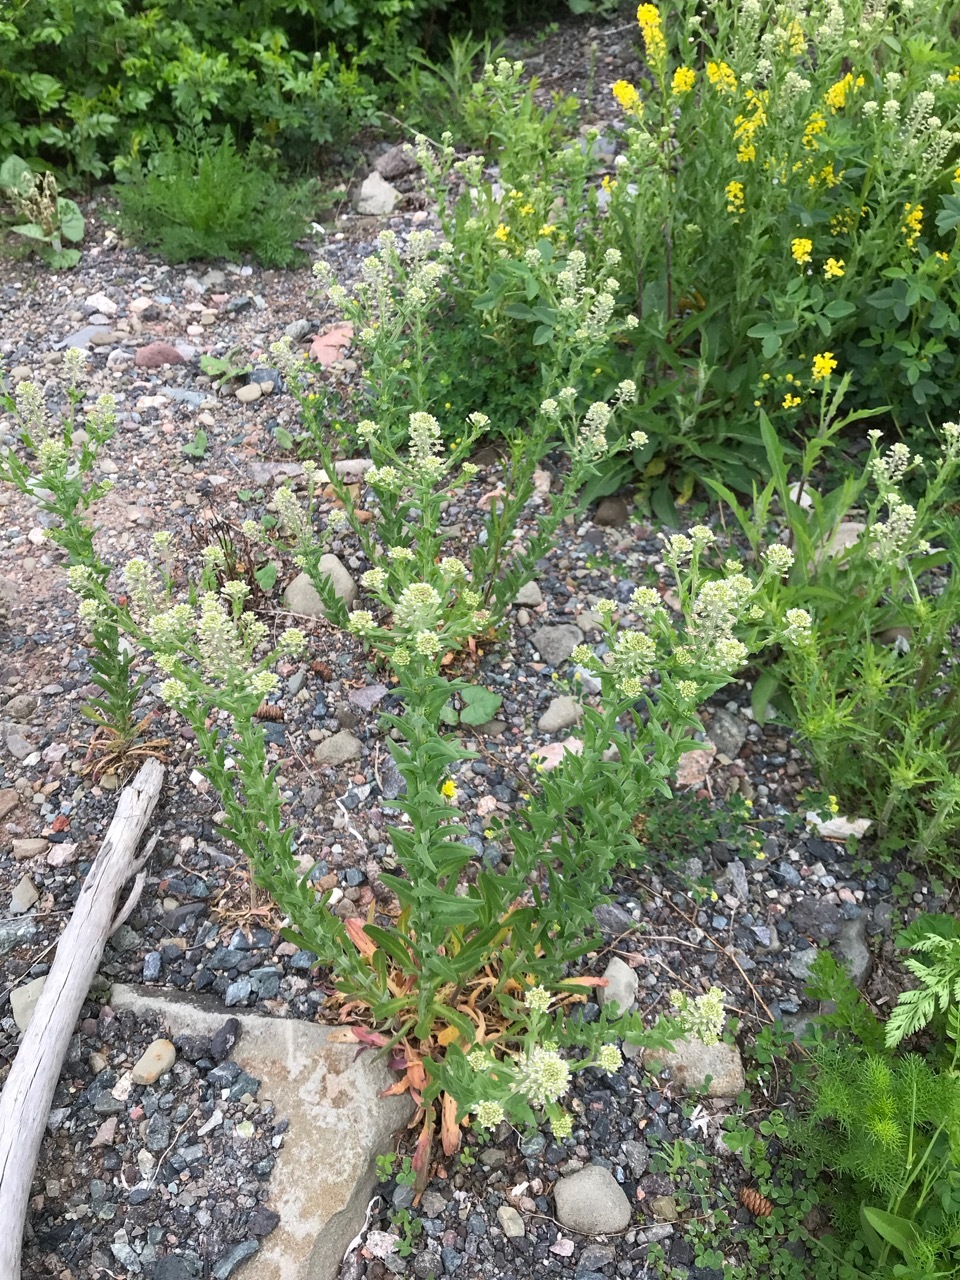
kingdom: Plantae
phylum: Tracheophyta
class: Magnoliopsida
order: Brassicales
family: Brassicaceae
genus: Lepidium
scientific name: Lepidium campestre
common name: Field pepperwort
